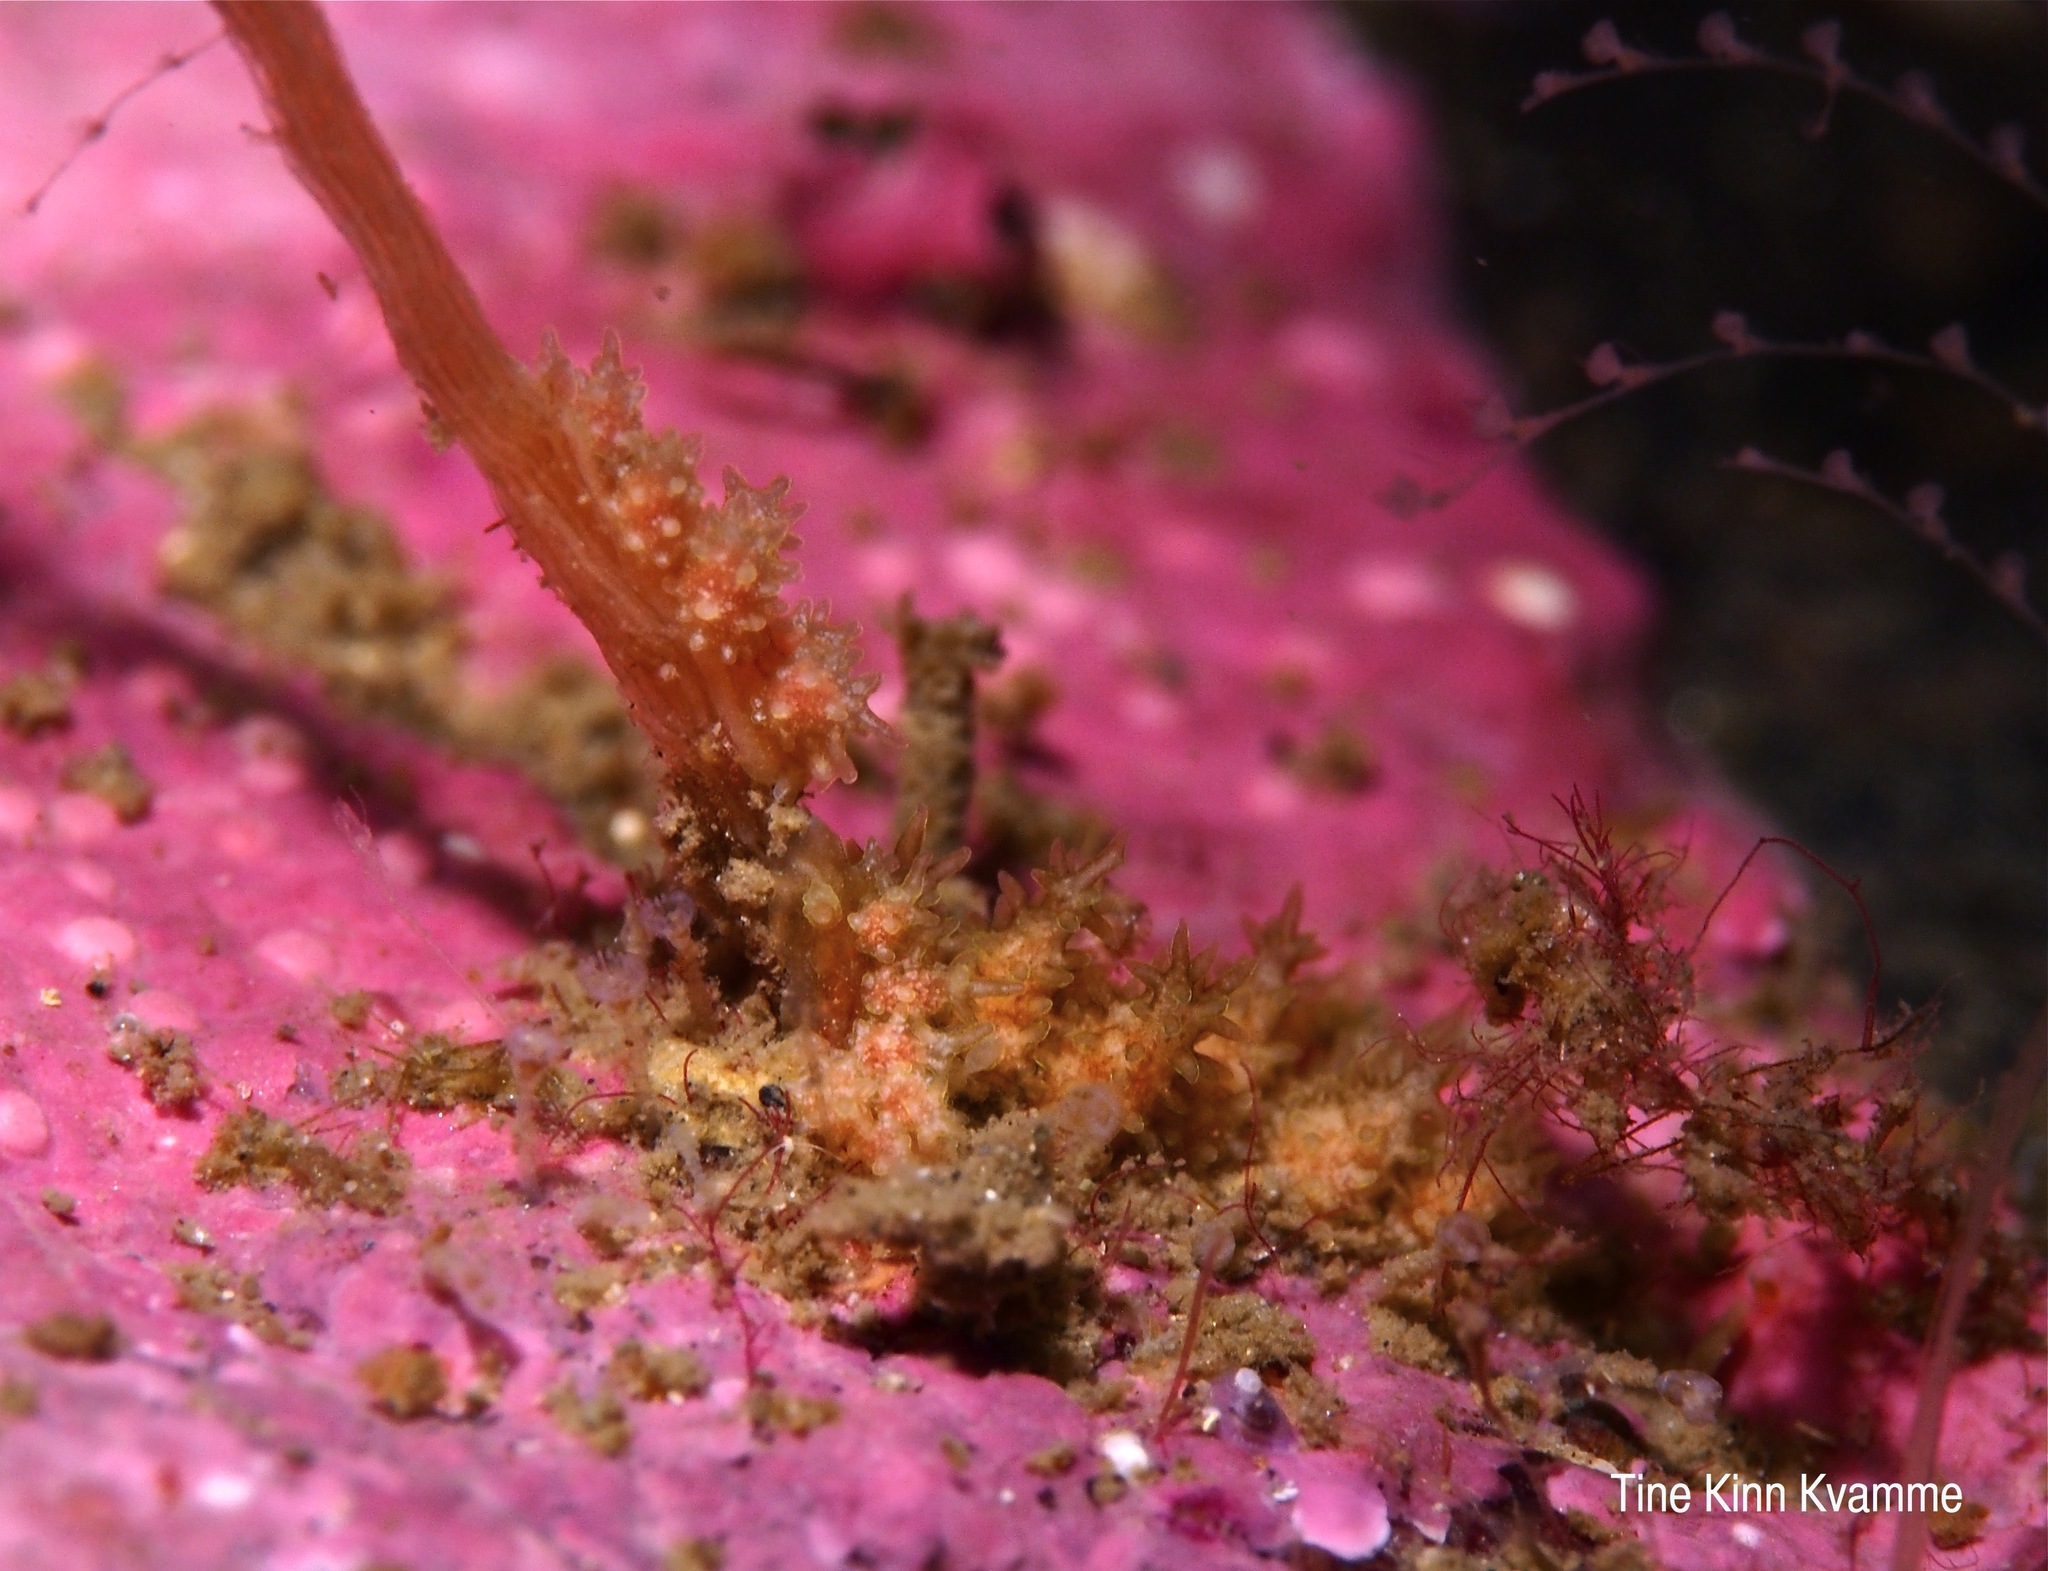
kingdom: Animalia
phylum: Mollusca
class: Gastropoda
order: Nudibranchia
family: Dotidae
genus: Doto
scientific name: Doto hystrix
